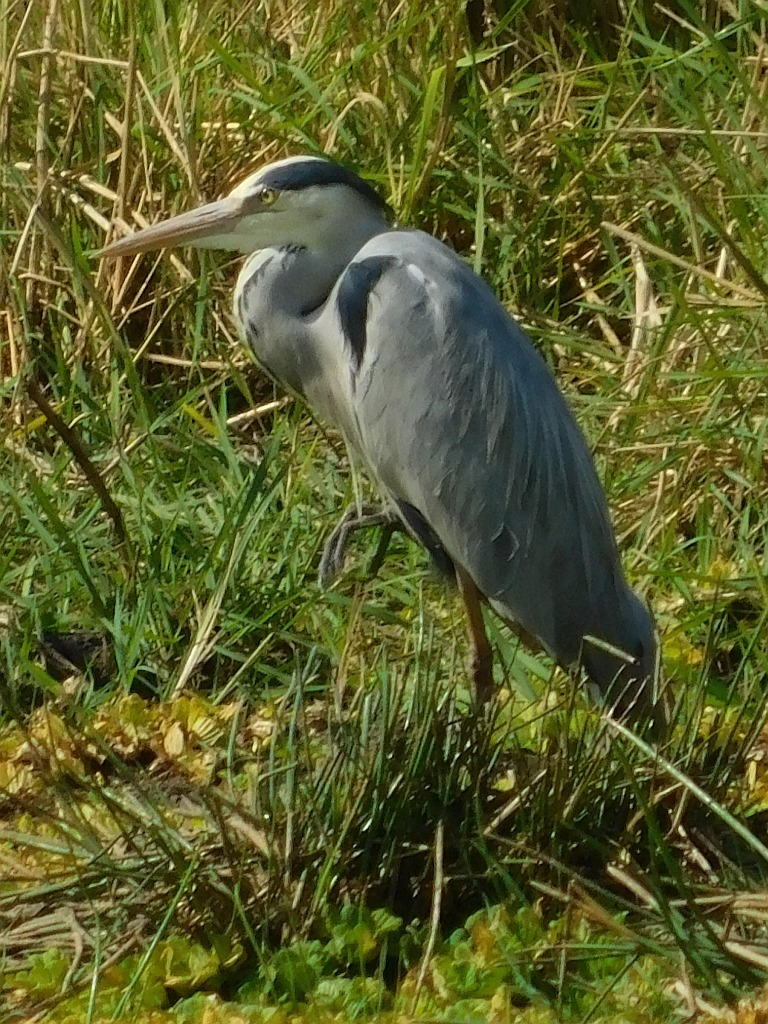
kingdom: Animalia
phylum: Chordata
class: Aves
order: Pelecaniformes
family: Ardeidae
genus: Ardea
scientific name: Ardea cinerea
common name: Grey heron
